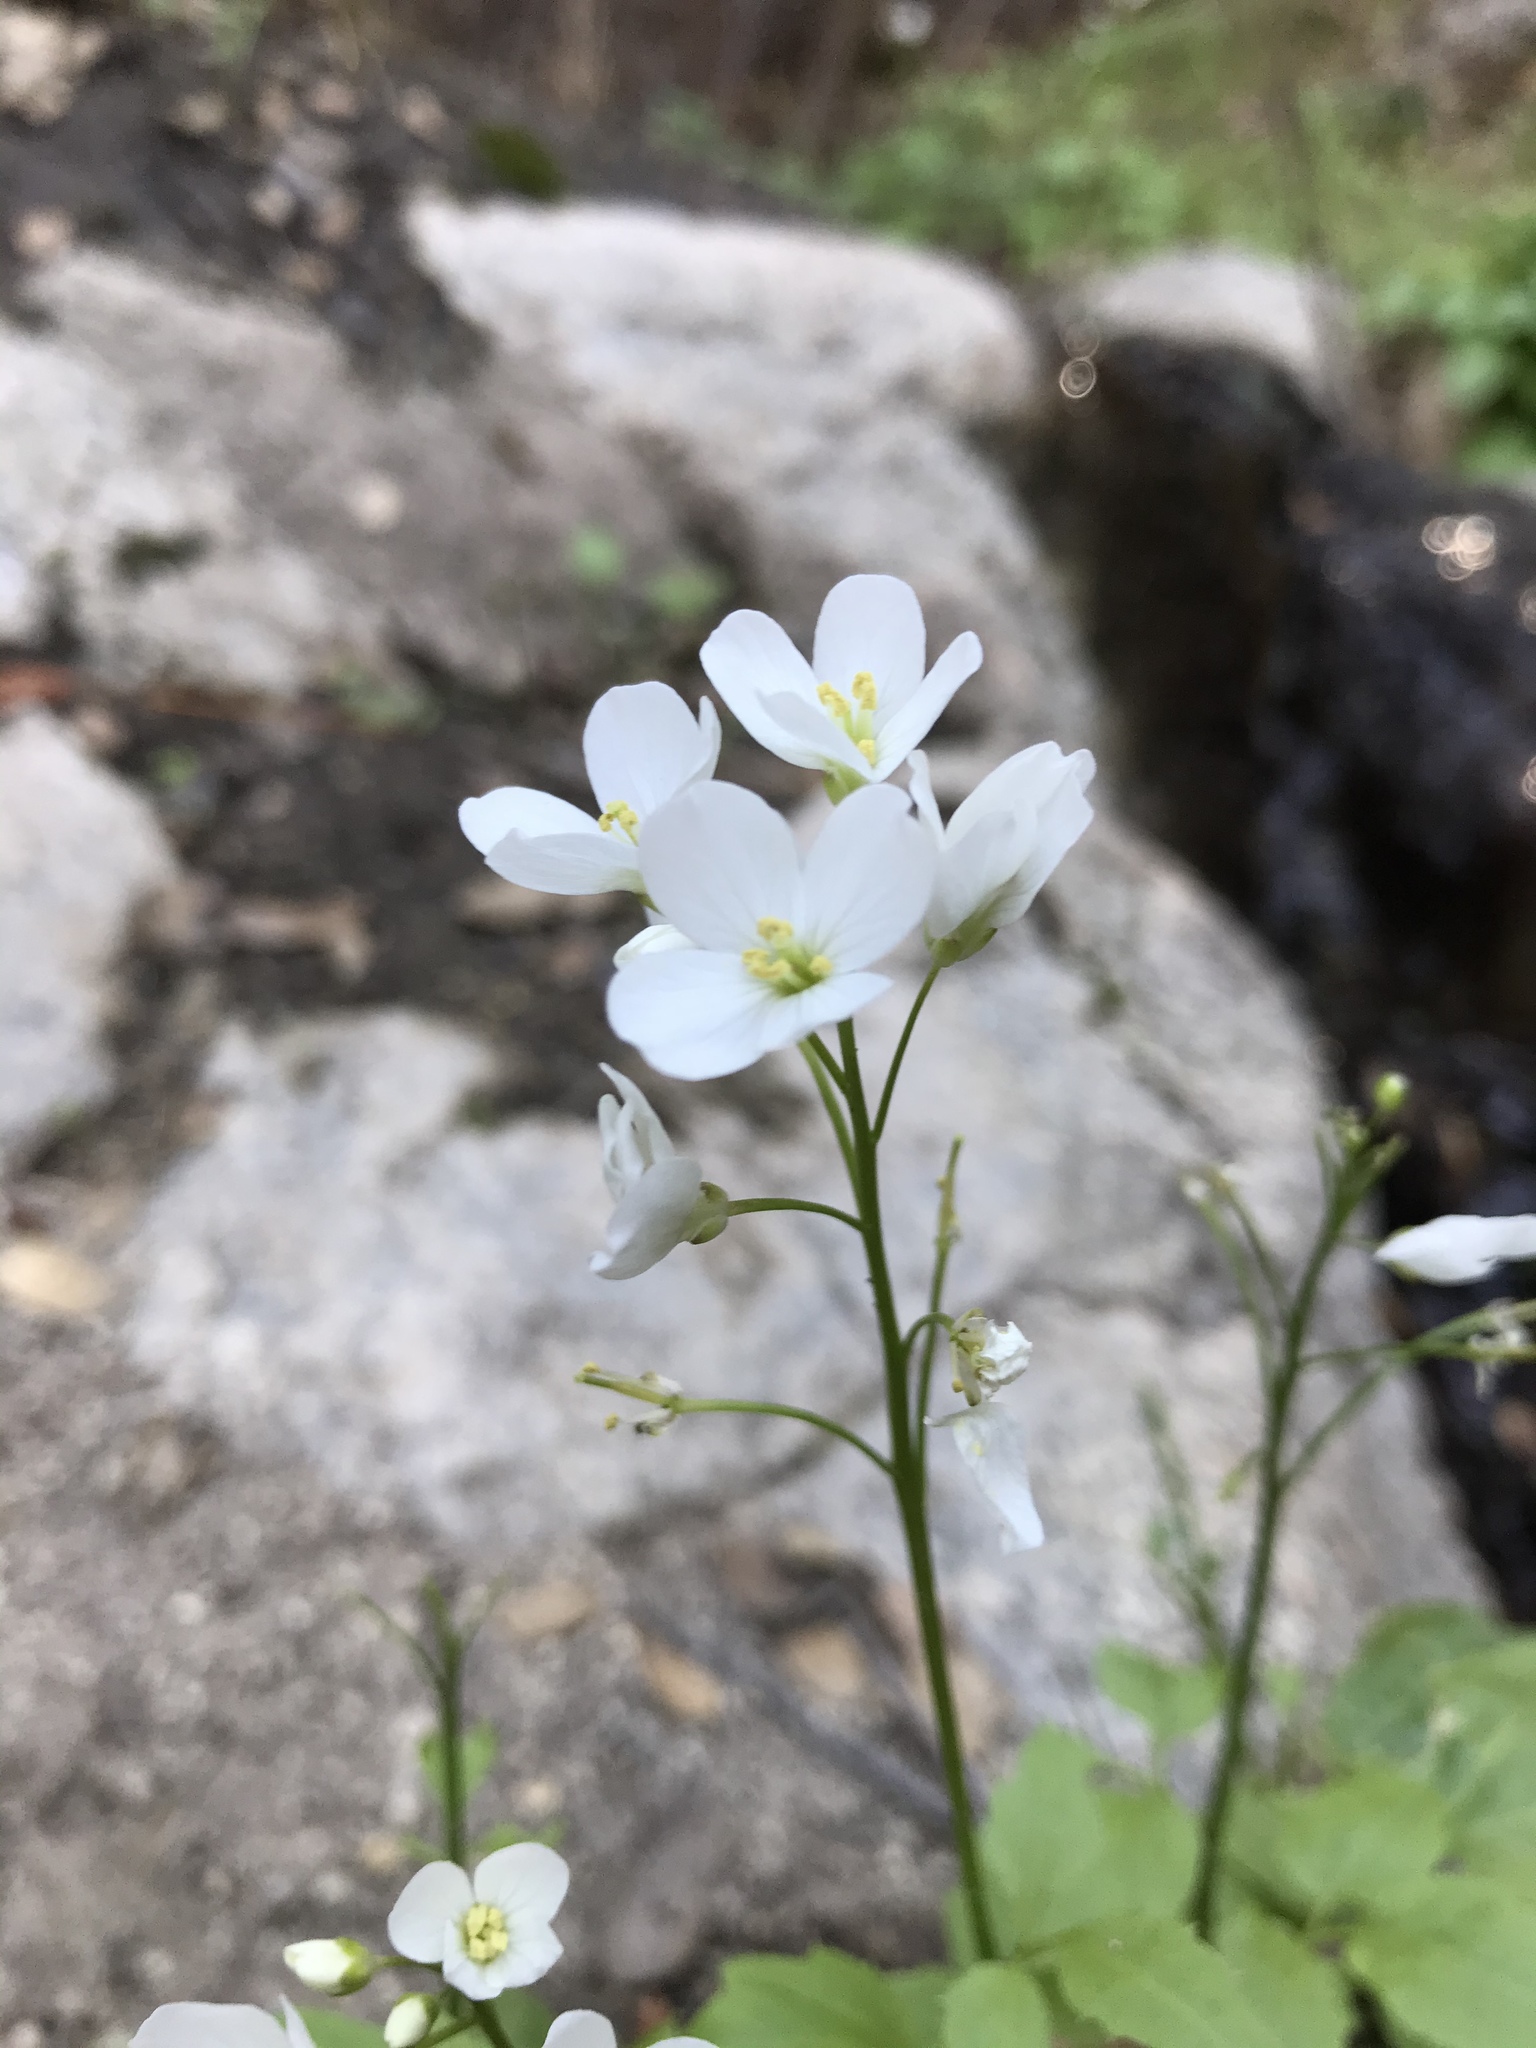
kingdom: Plantae
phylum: Tracheophyta
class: Magnoliopsida
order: Brassicales
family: Brassicaceae
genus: Cardamine
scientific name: Cardamine californica
